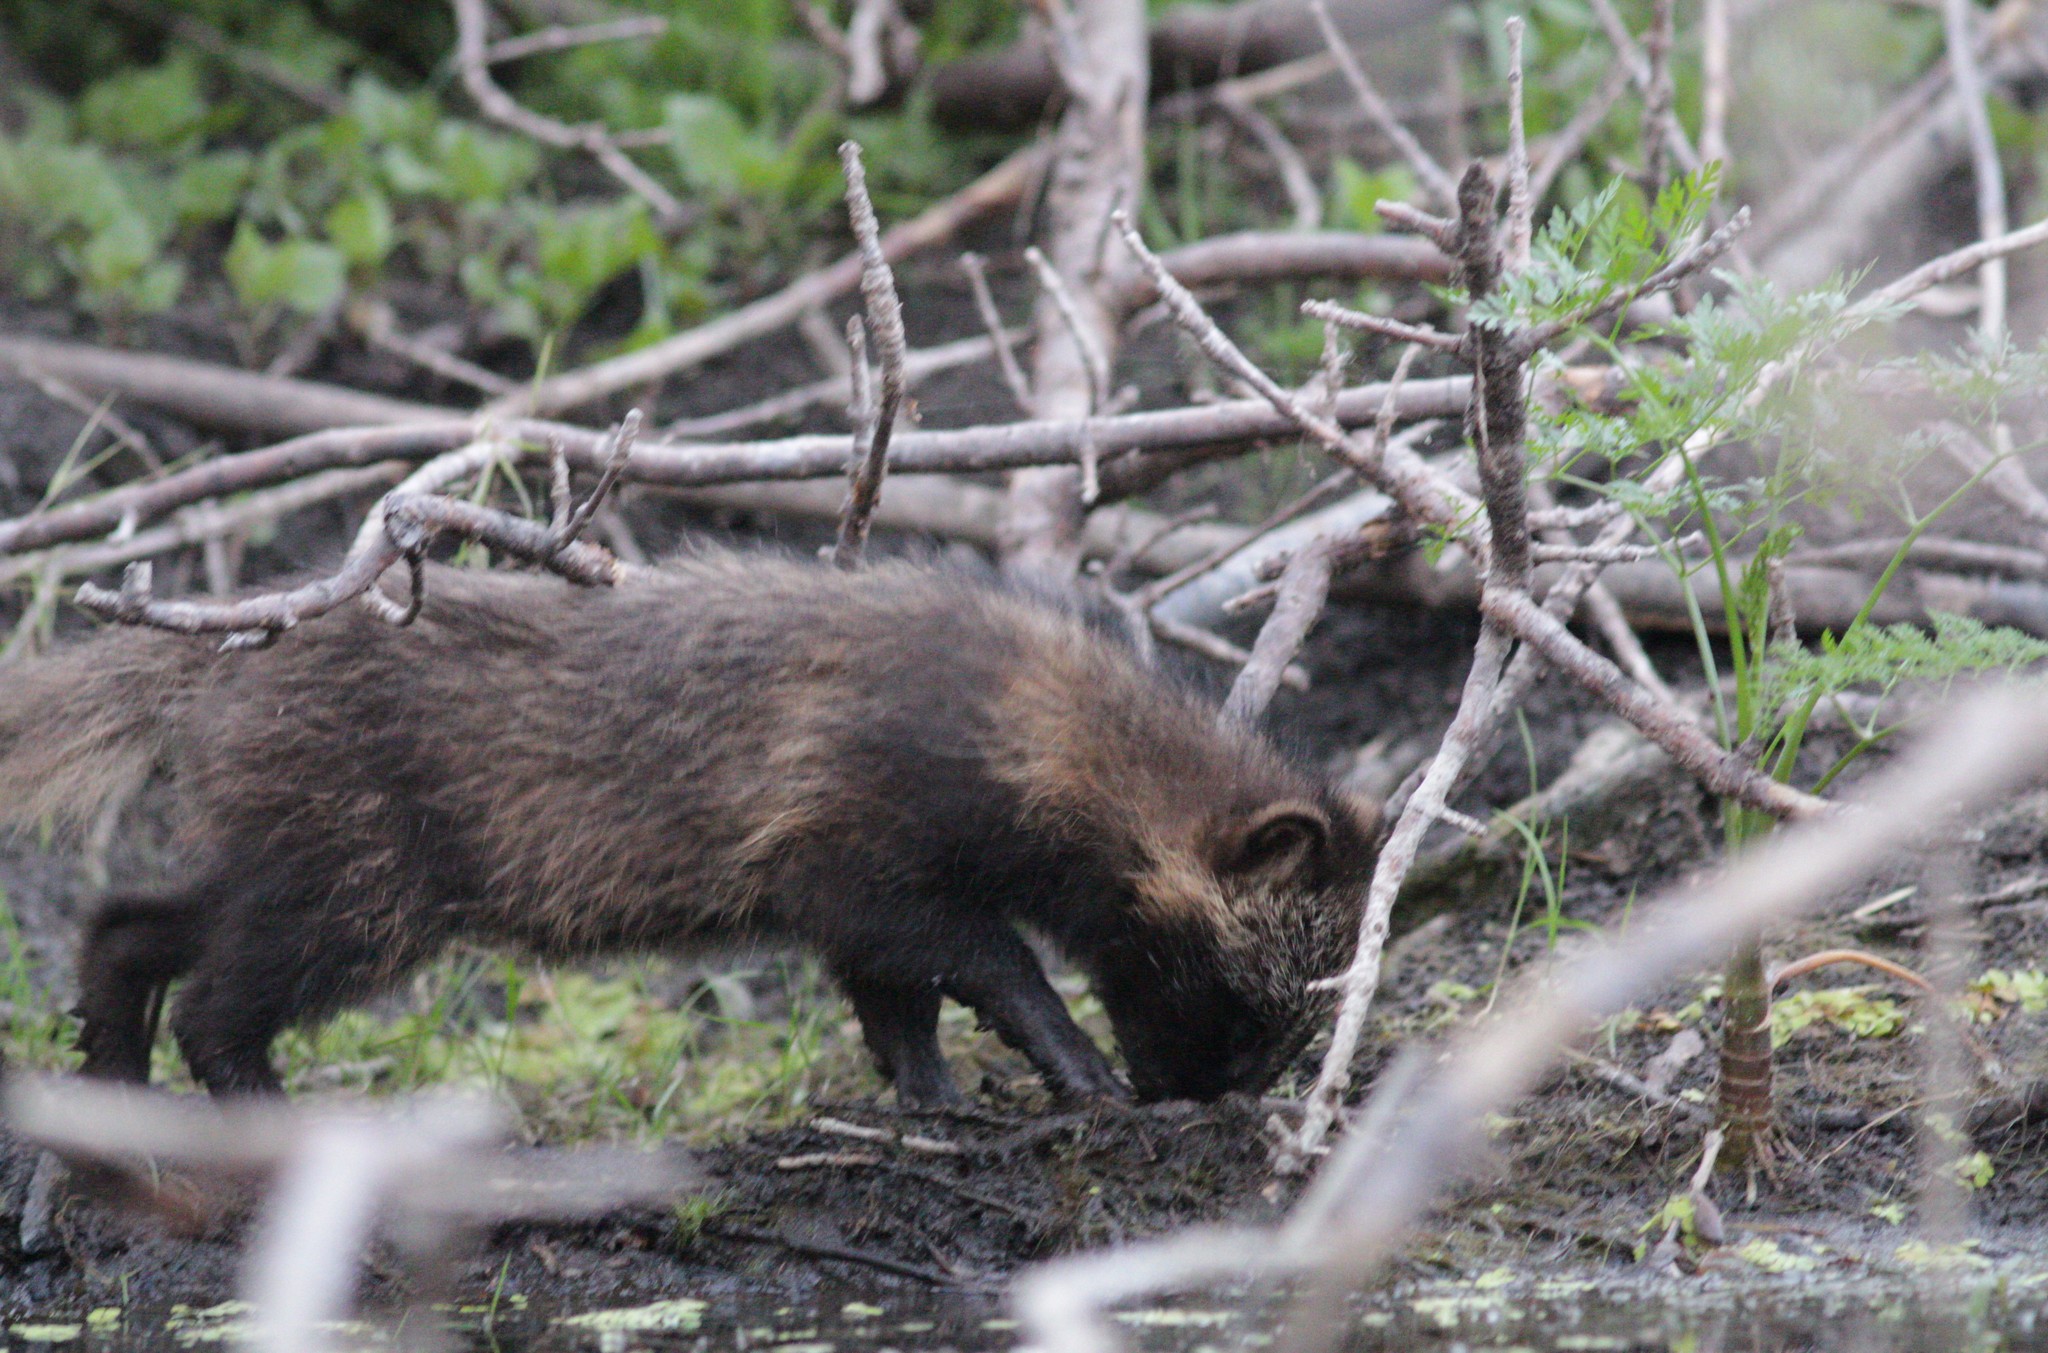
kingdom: Animalia
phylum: Chordata
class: Mammalia
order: Carnivora
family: Canidae
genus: Nyctereutes
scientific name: Nyctereutes procyonoides
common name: Raccoon dog
